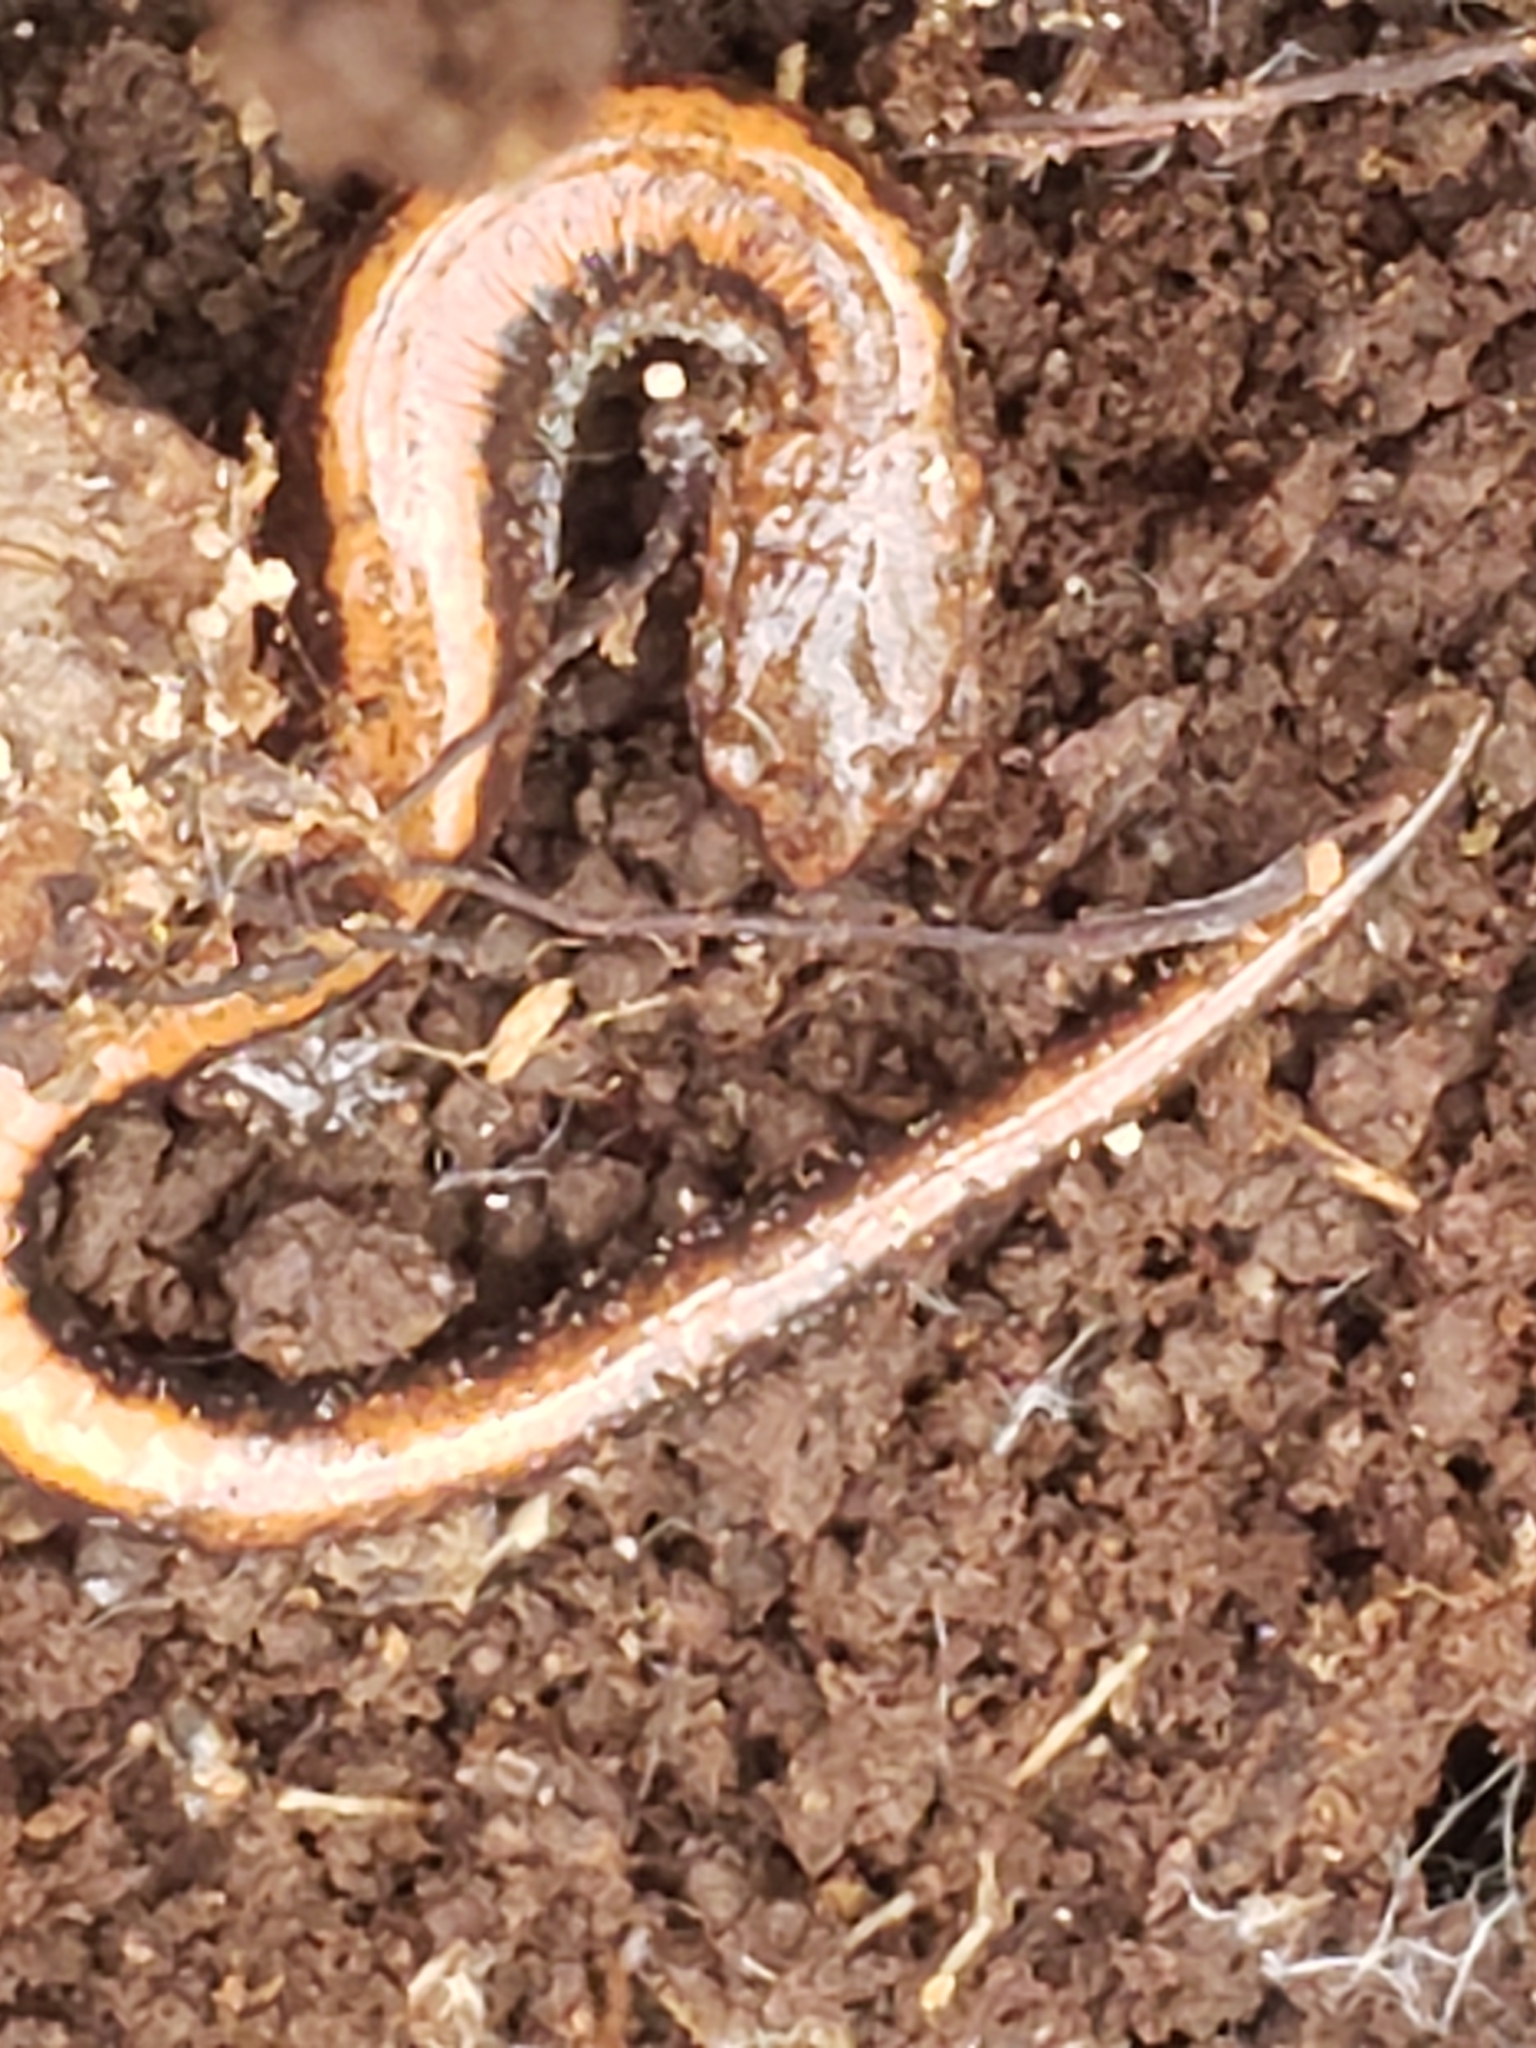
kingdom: Animalia
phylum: Chordata
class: Amphibia
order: Caudata
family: Plethodontidae
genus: Plethodon
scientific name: Plethodon cinereus
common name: Redback salamander
